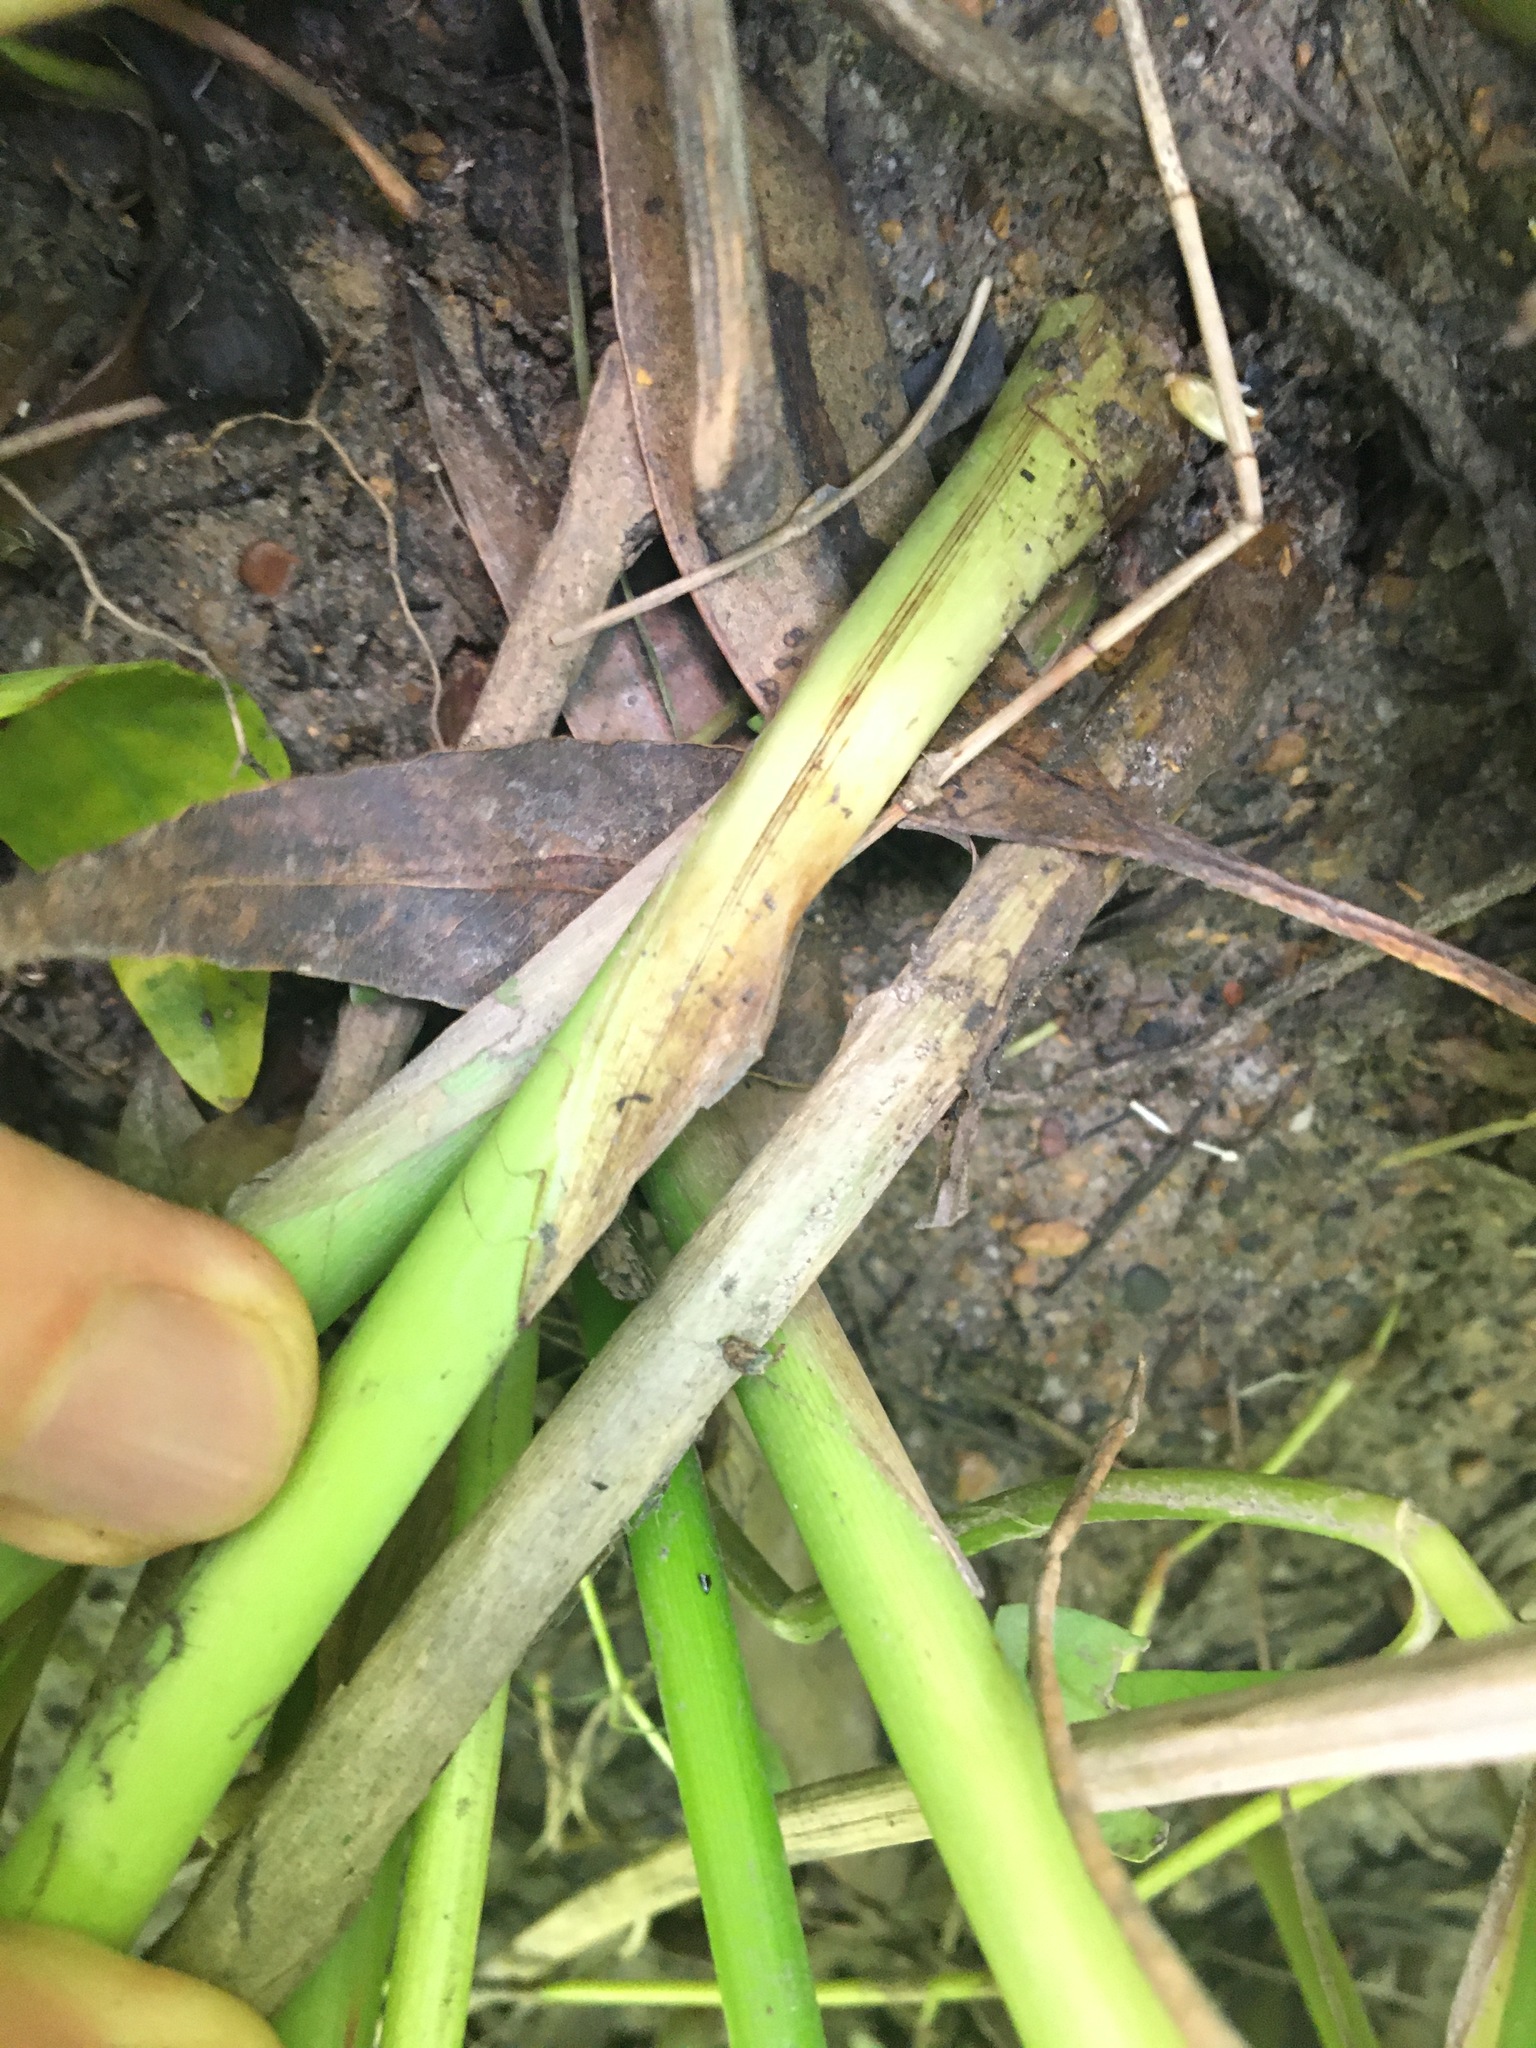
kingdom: Plantae
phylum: Tracheophyta
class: Liliopsida
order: Poales
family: Cyperaceae
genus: Schoenoplectus
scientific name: Schoenoplectus tabernaemontani
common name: Grey club-rush
